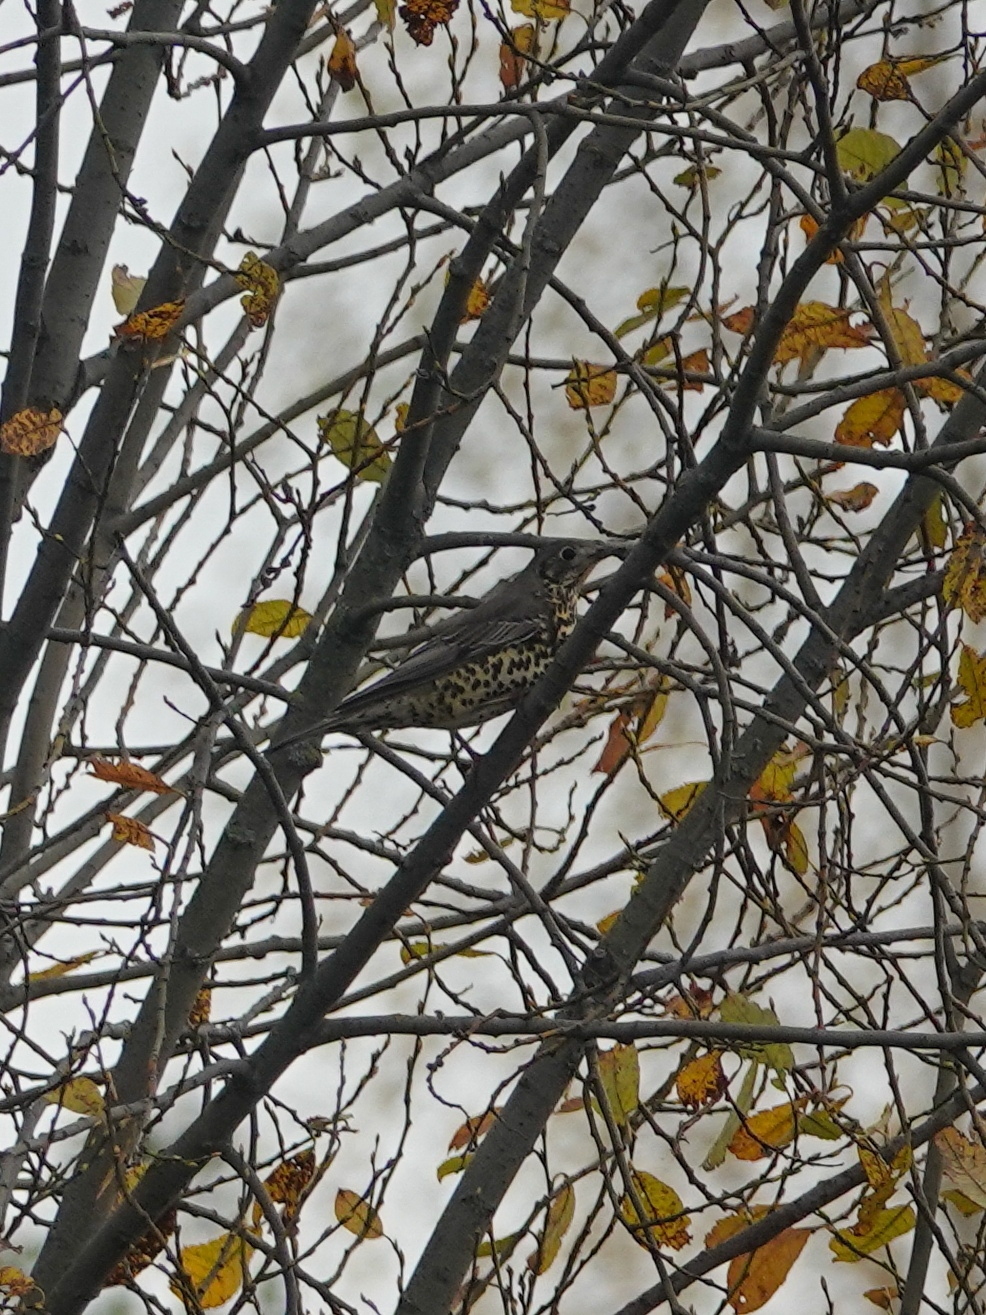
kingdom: Animalia
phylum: Chordata
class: Aves
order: Passeriformes
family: Turdidae
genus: Turdus
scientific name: Turdus viscivorus
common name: Mistle thrush
